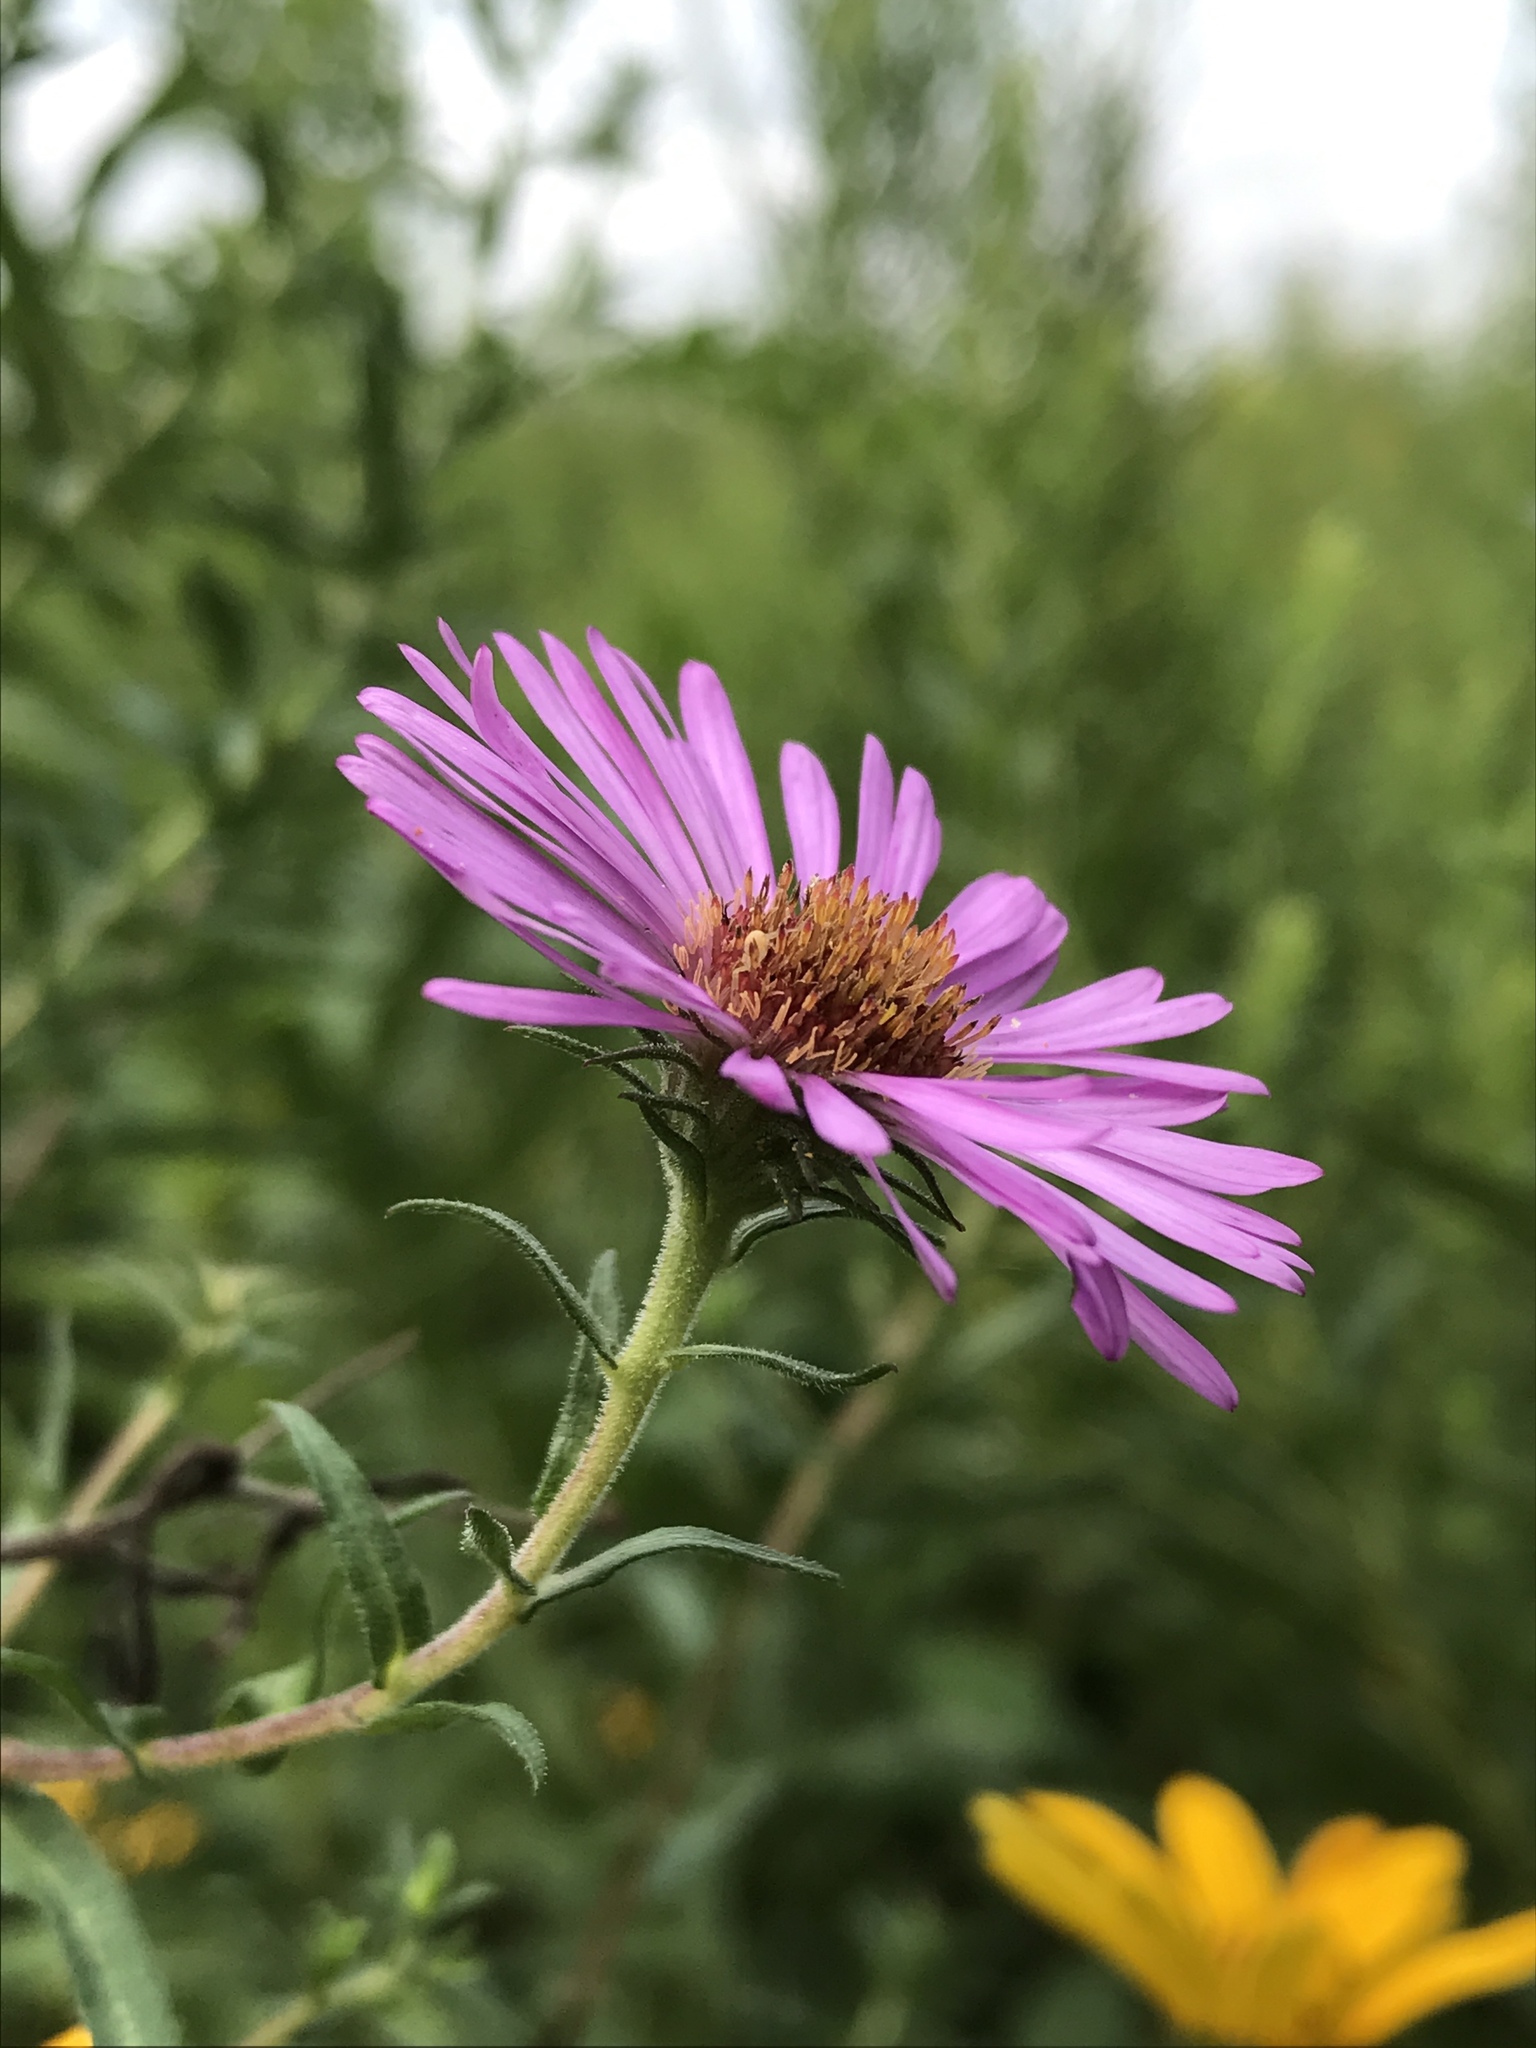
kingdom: Plantae
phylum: Tracheophyta
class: Magnoliopsida
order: Asterales
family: Asteraceae
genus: Symphyotrichum
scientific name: Symphyotrichum novae-angliae
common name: Michaelmas daisy
